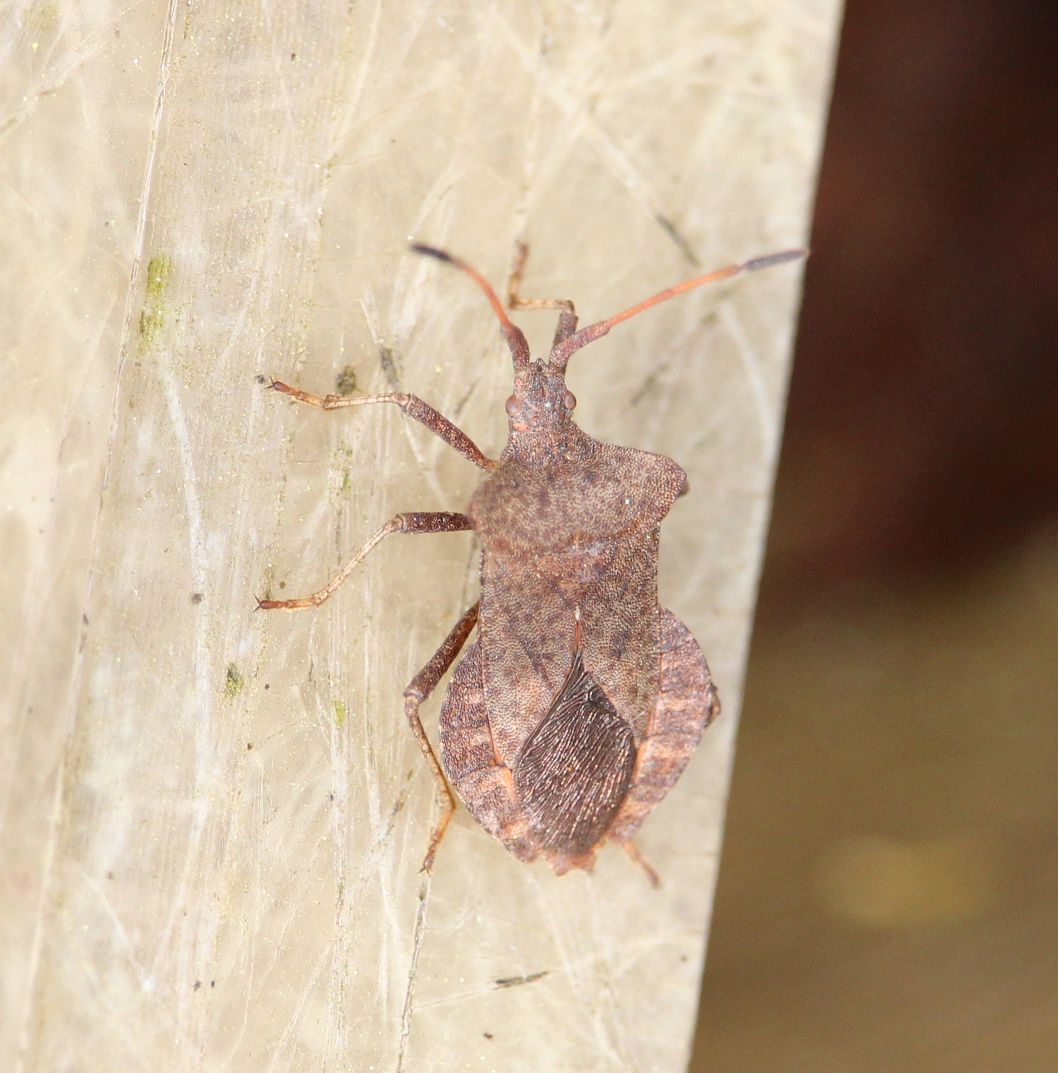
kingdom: Animalia
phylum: Arthropoda
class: Insecta
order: Hemiptera
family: Coreidae
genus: Coreus
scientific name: Coreus marginatus
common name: Dock bug
